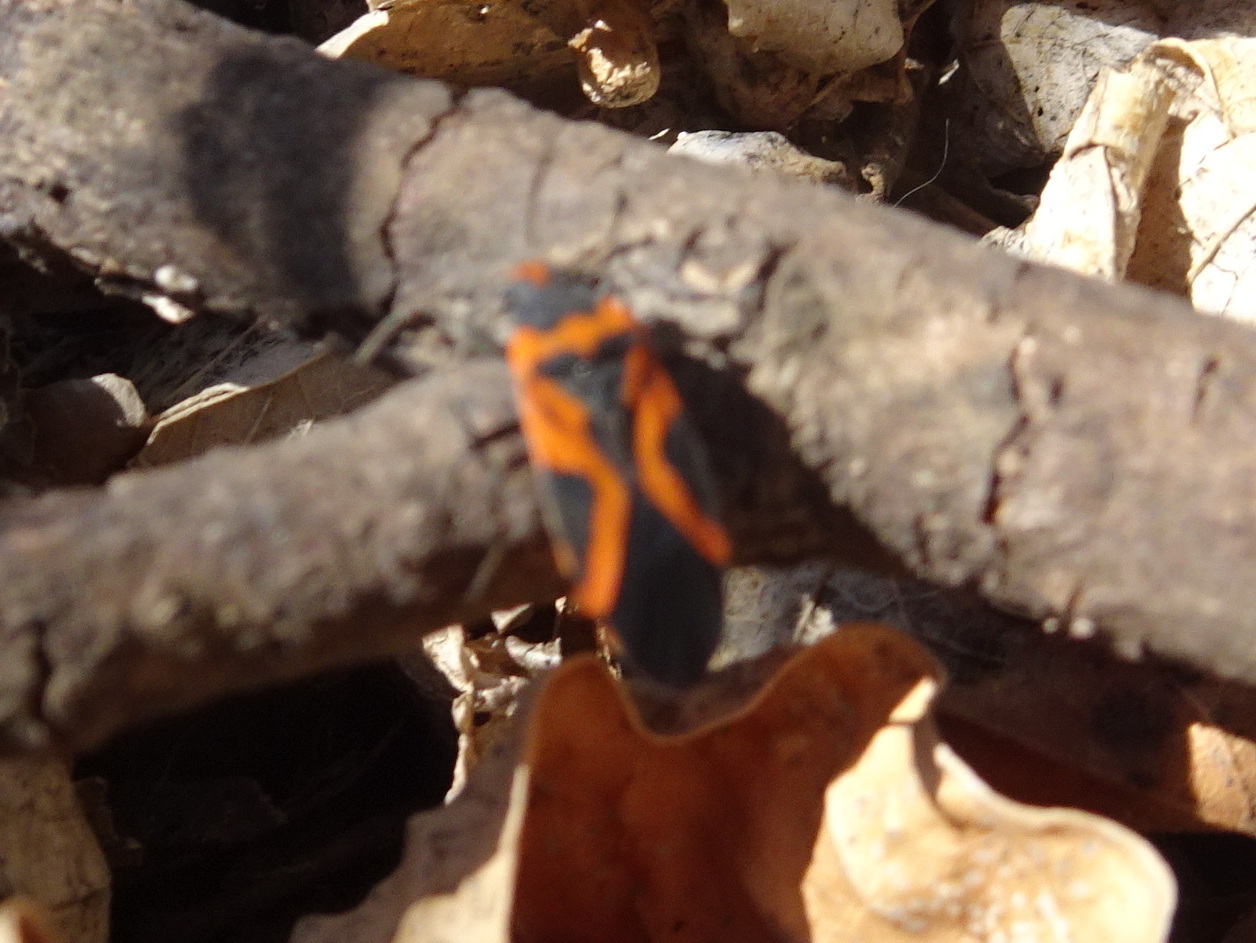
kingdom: Animalia
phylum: Arthropoda
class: Insecta
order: Hemiptera
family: Lygaeidae
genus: Lygaeus
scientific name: Lygaeus turcicus
